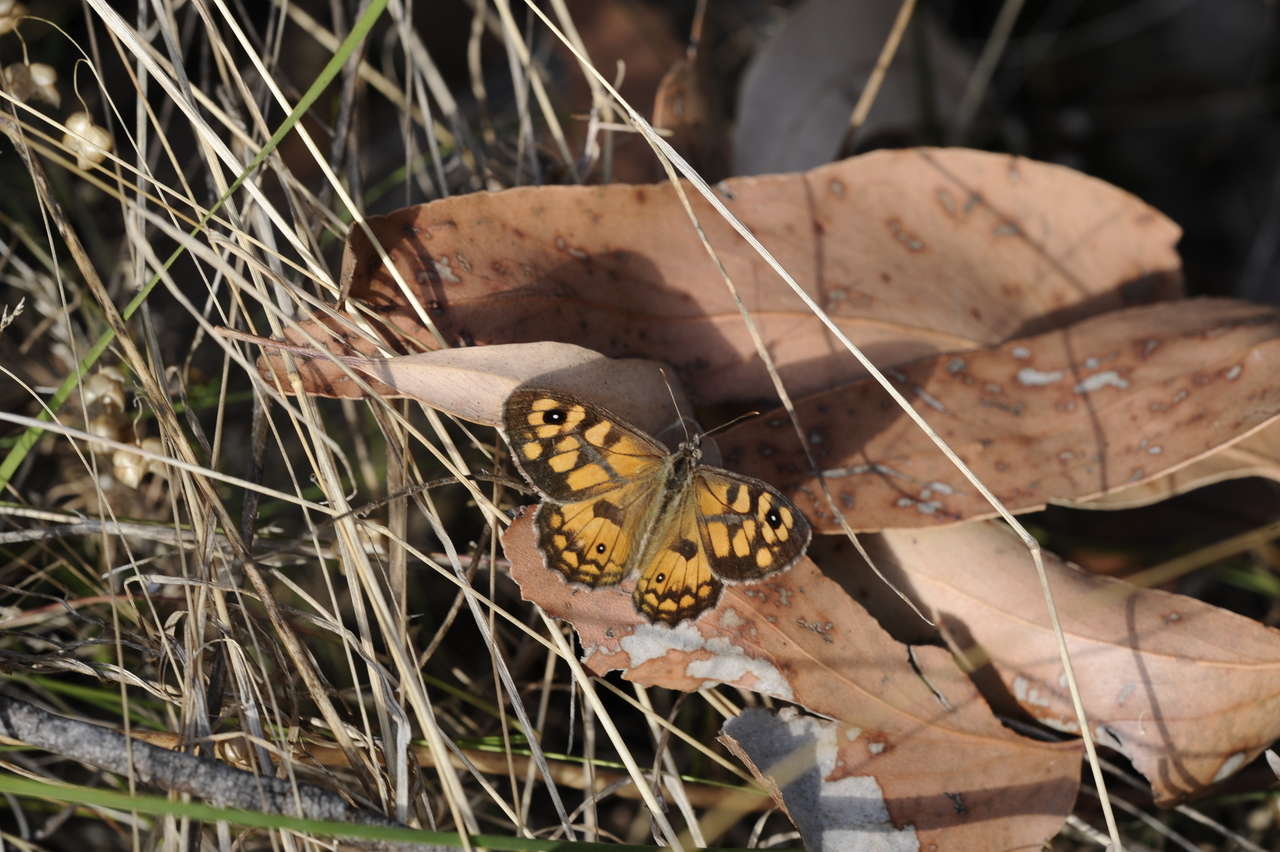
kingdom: Animalia
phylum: Arthropoda
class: Insecta
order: Lepidoptera
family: Nymphalidae
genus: Geitoneura
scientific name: Geitoneura klugii
